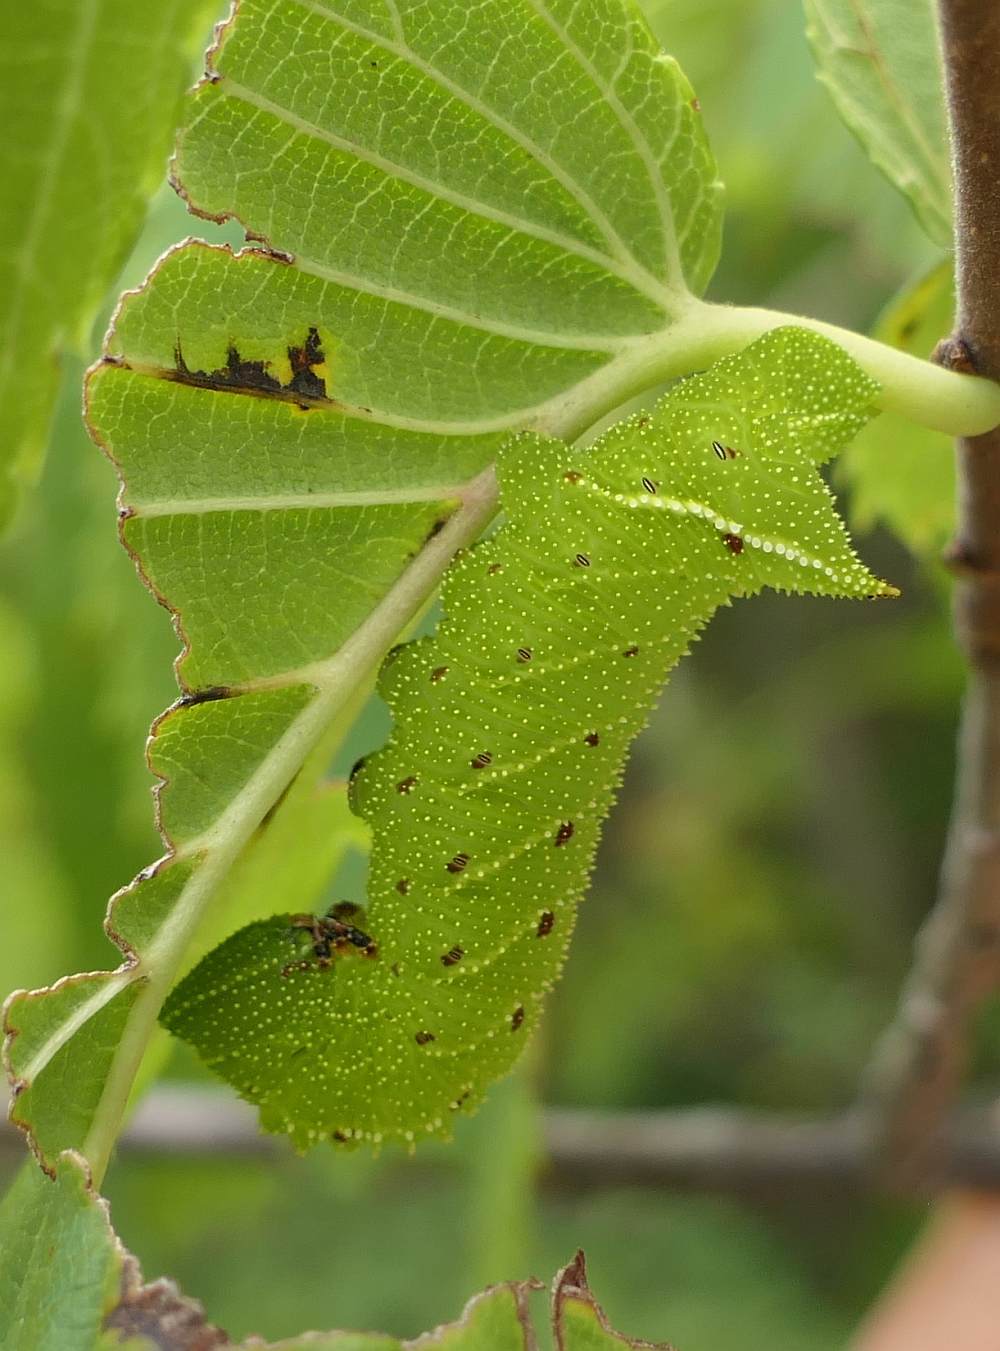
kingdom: Animalia
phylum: Arthropoda
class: Insecta
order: Lepidoptera
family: Sphingidae
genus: Paonias
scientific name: Paonias excaecata
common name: Blind-eyed sphinx
